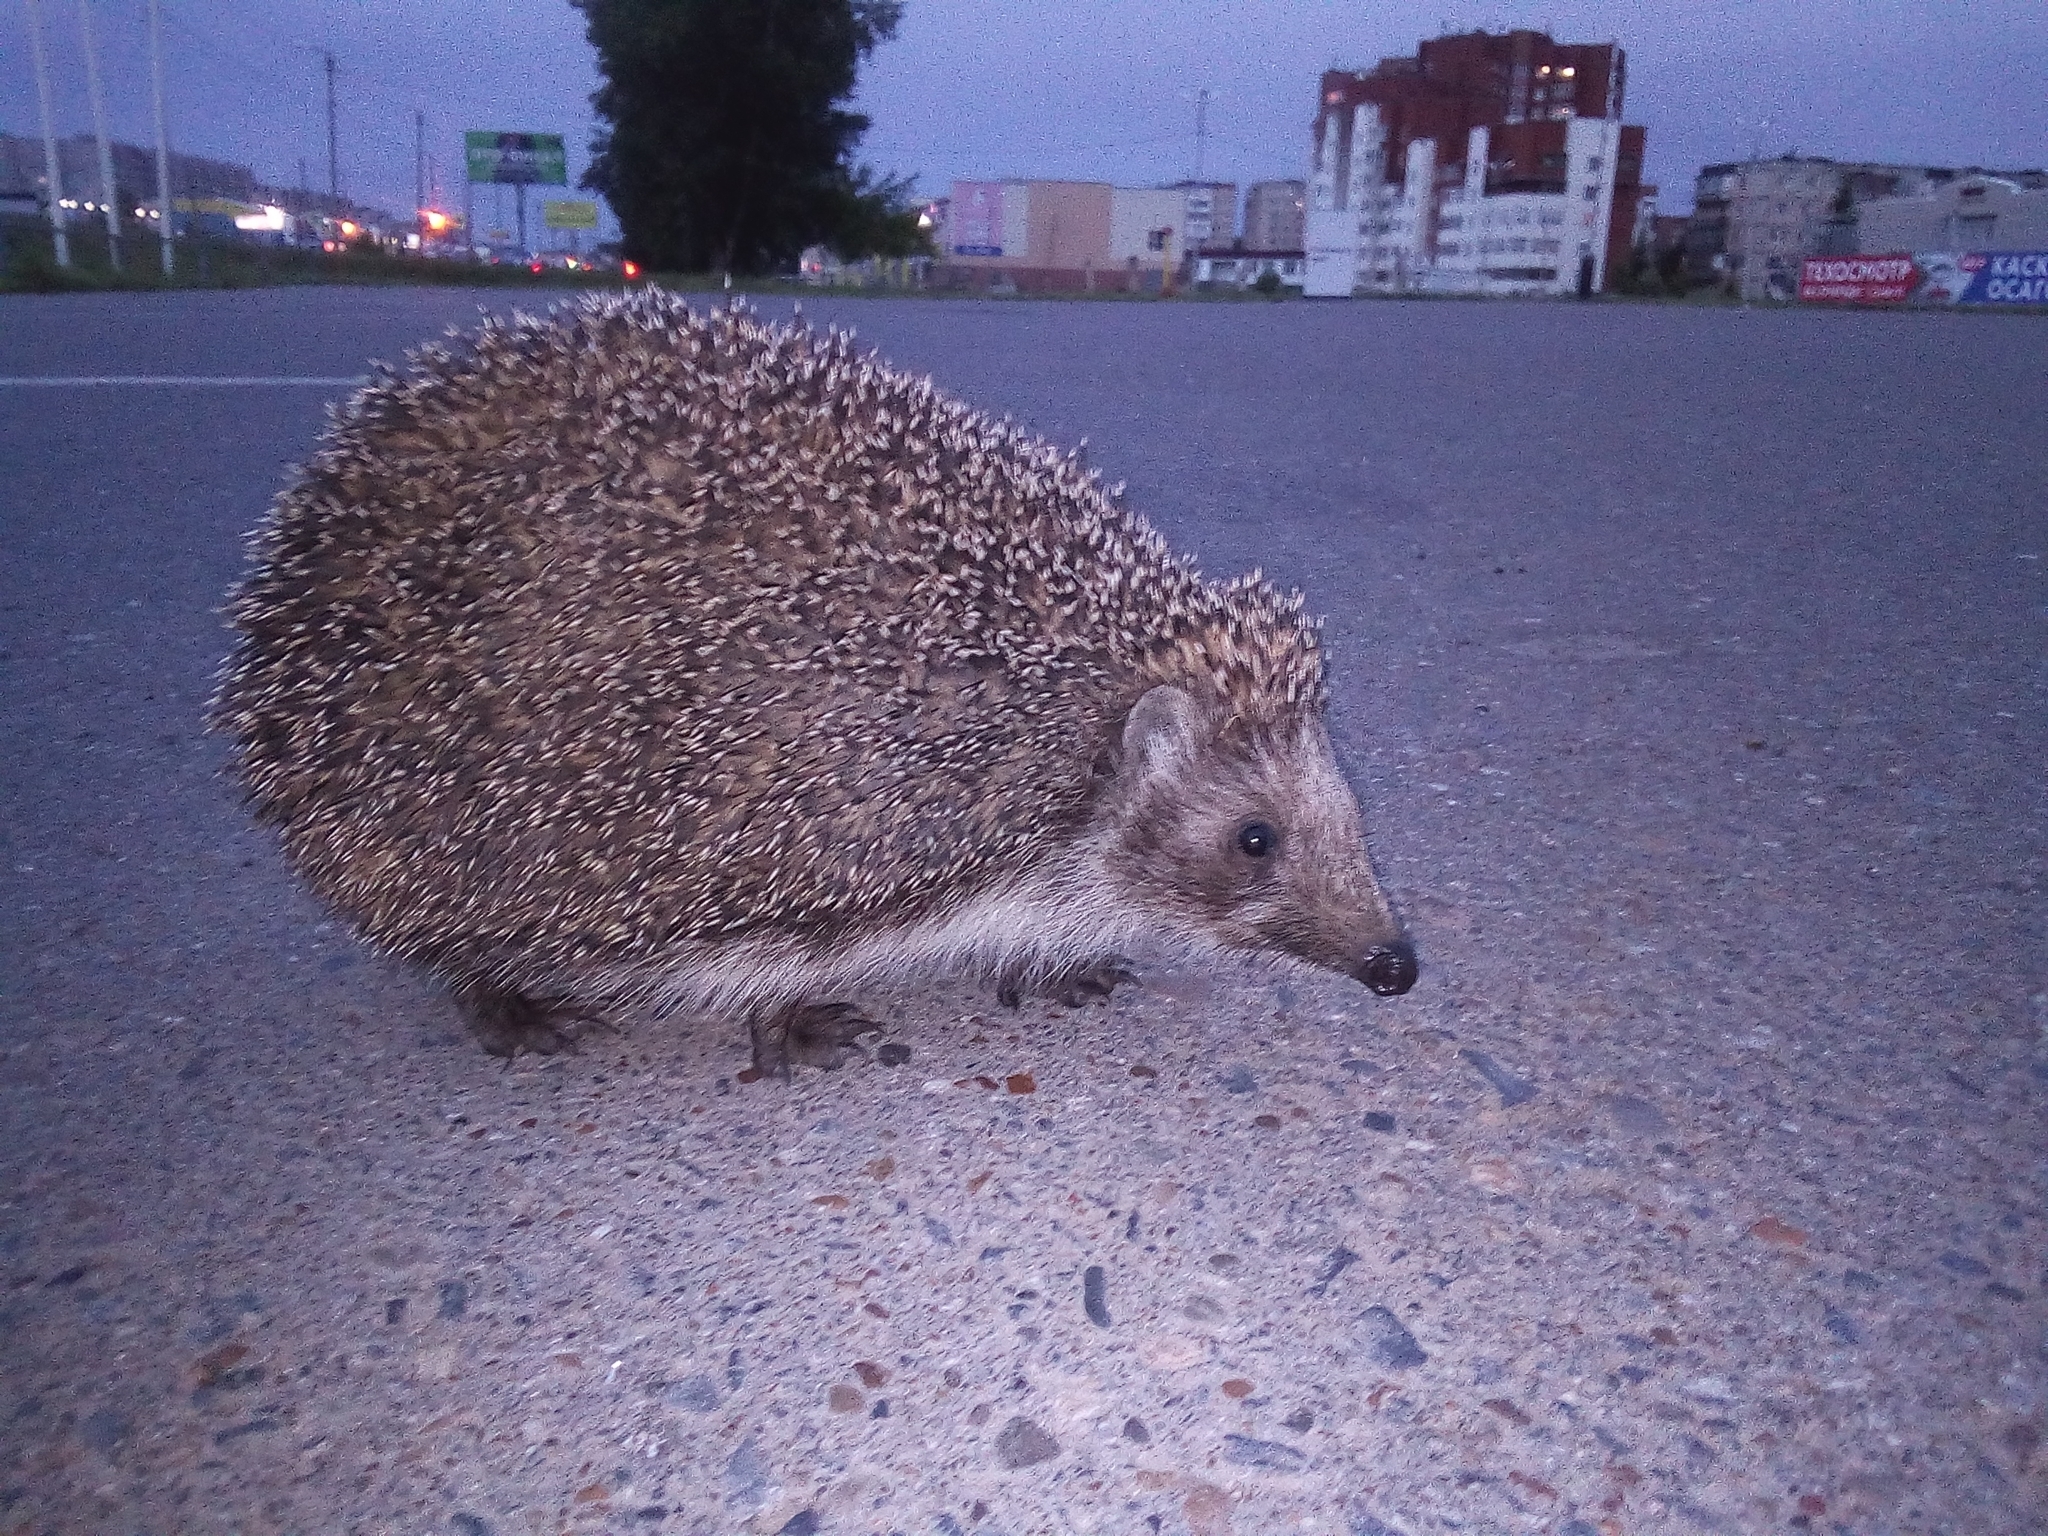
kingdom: Animalia
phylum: Chordata
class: Mammalia
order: Erinaceomorpha
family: Erinaceidae
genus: Erinaceus
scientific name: Erinaceus roumanicus
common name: Northern white-breasted hedgehog
